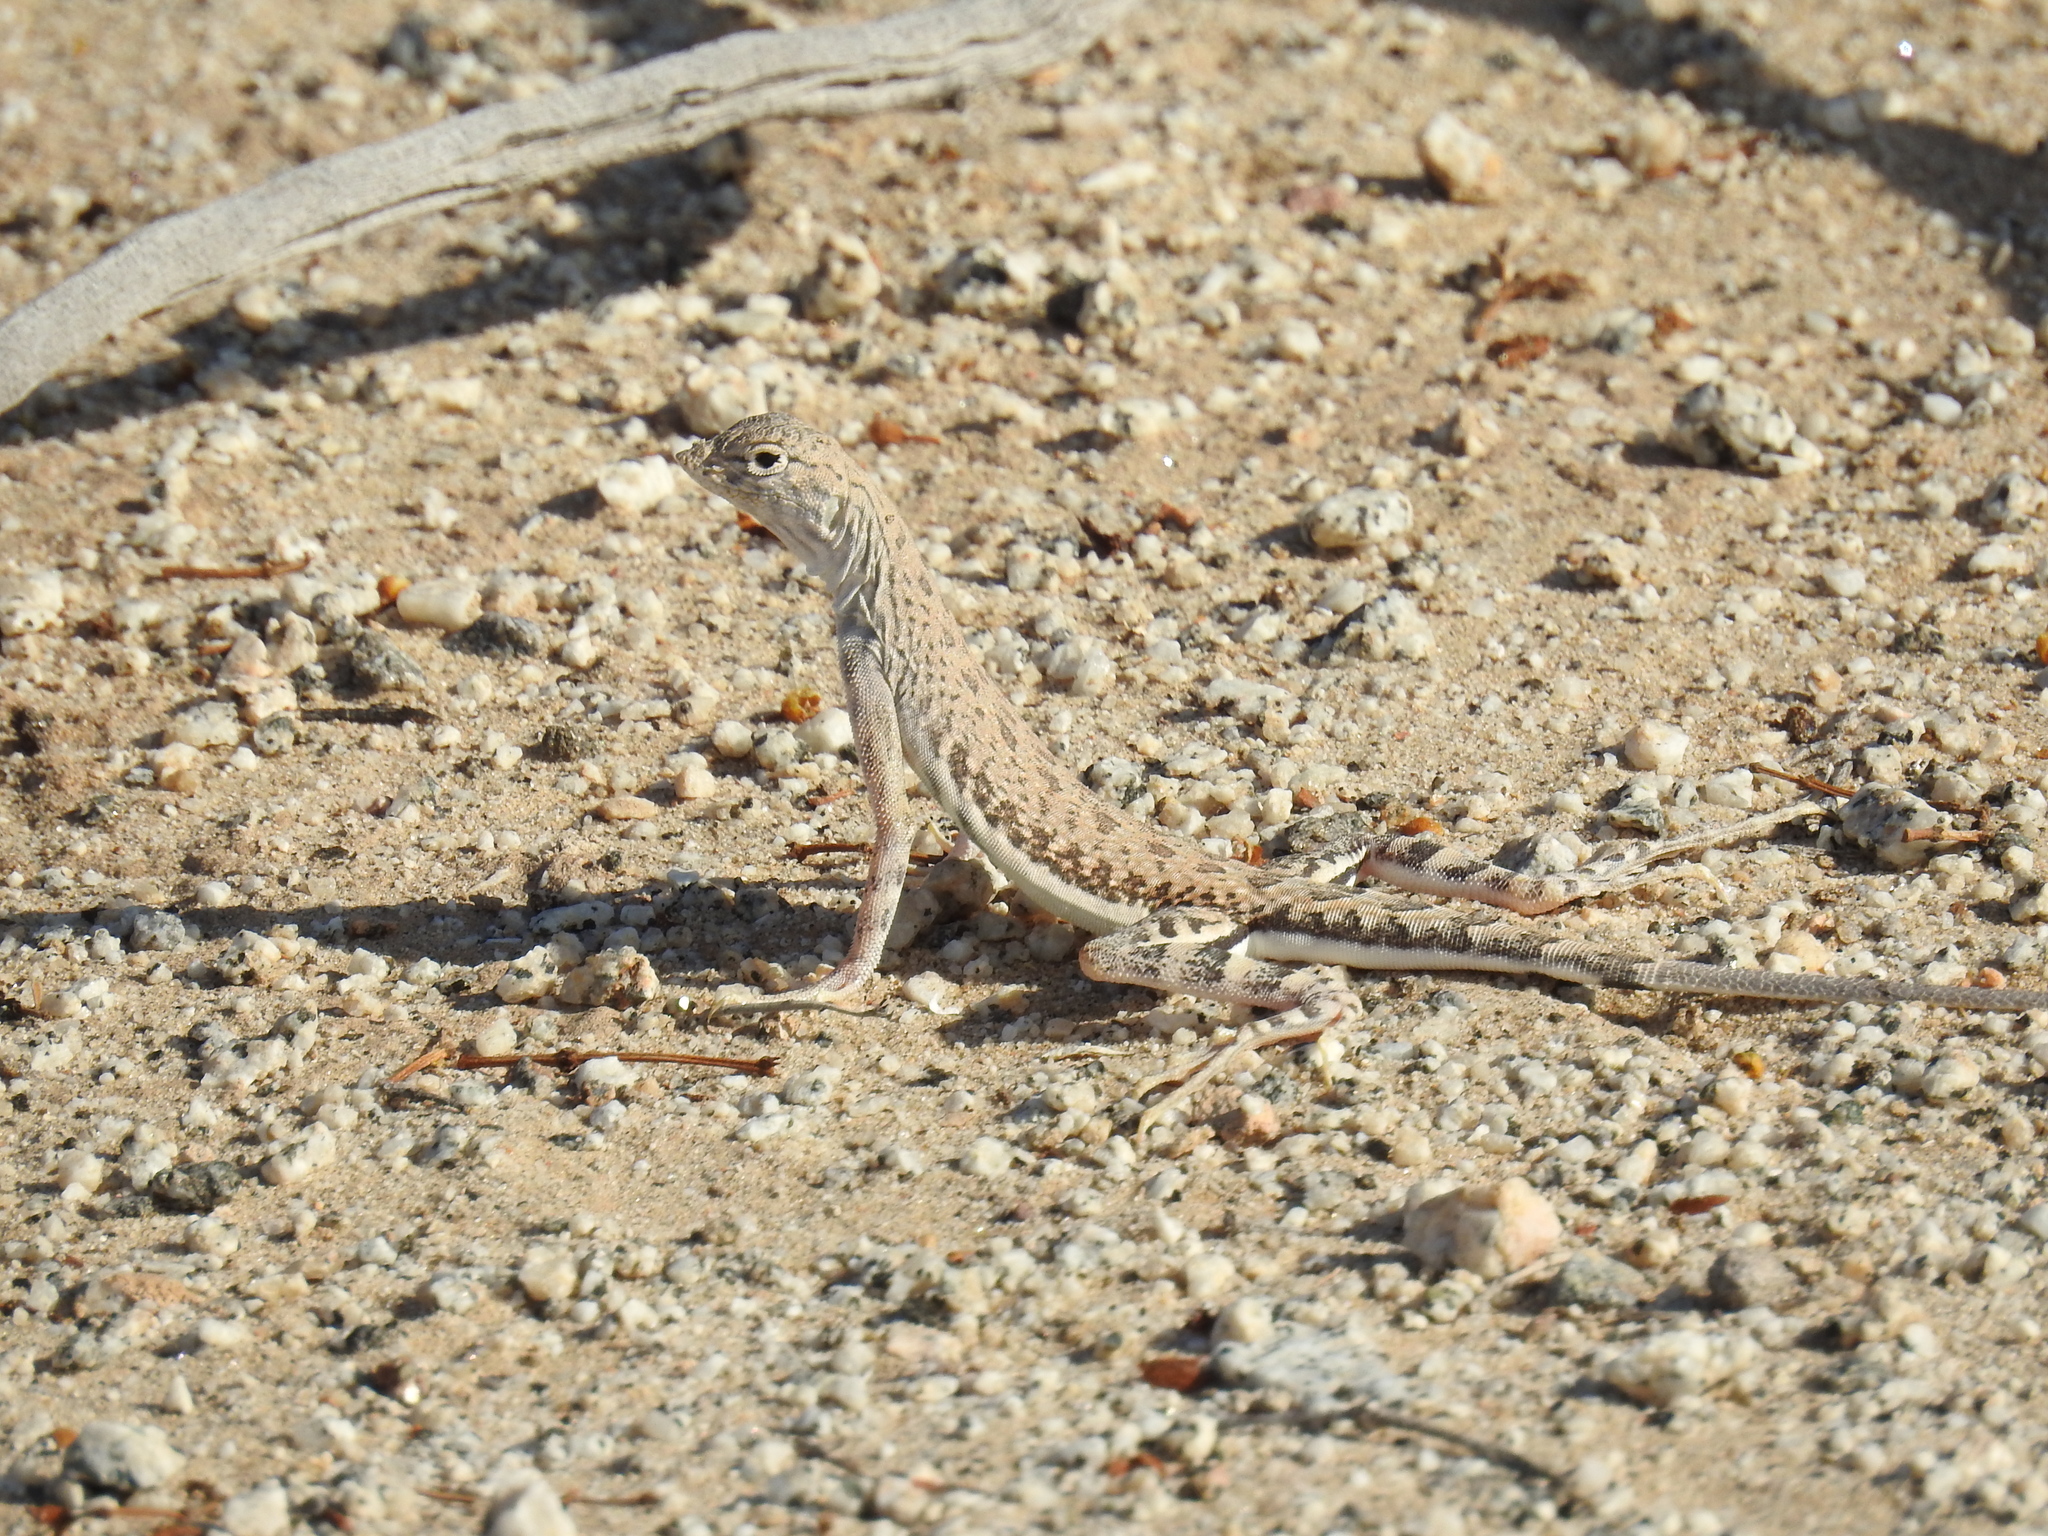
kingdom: Animalia
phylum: Chordata
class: Squamata
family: Phrynosomatidae
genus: Callisaurus
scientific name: Callisaurus draconoides
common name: Zebra-tailed lizard
